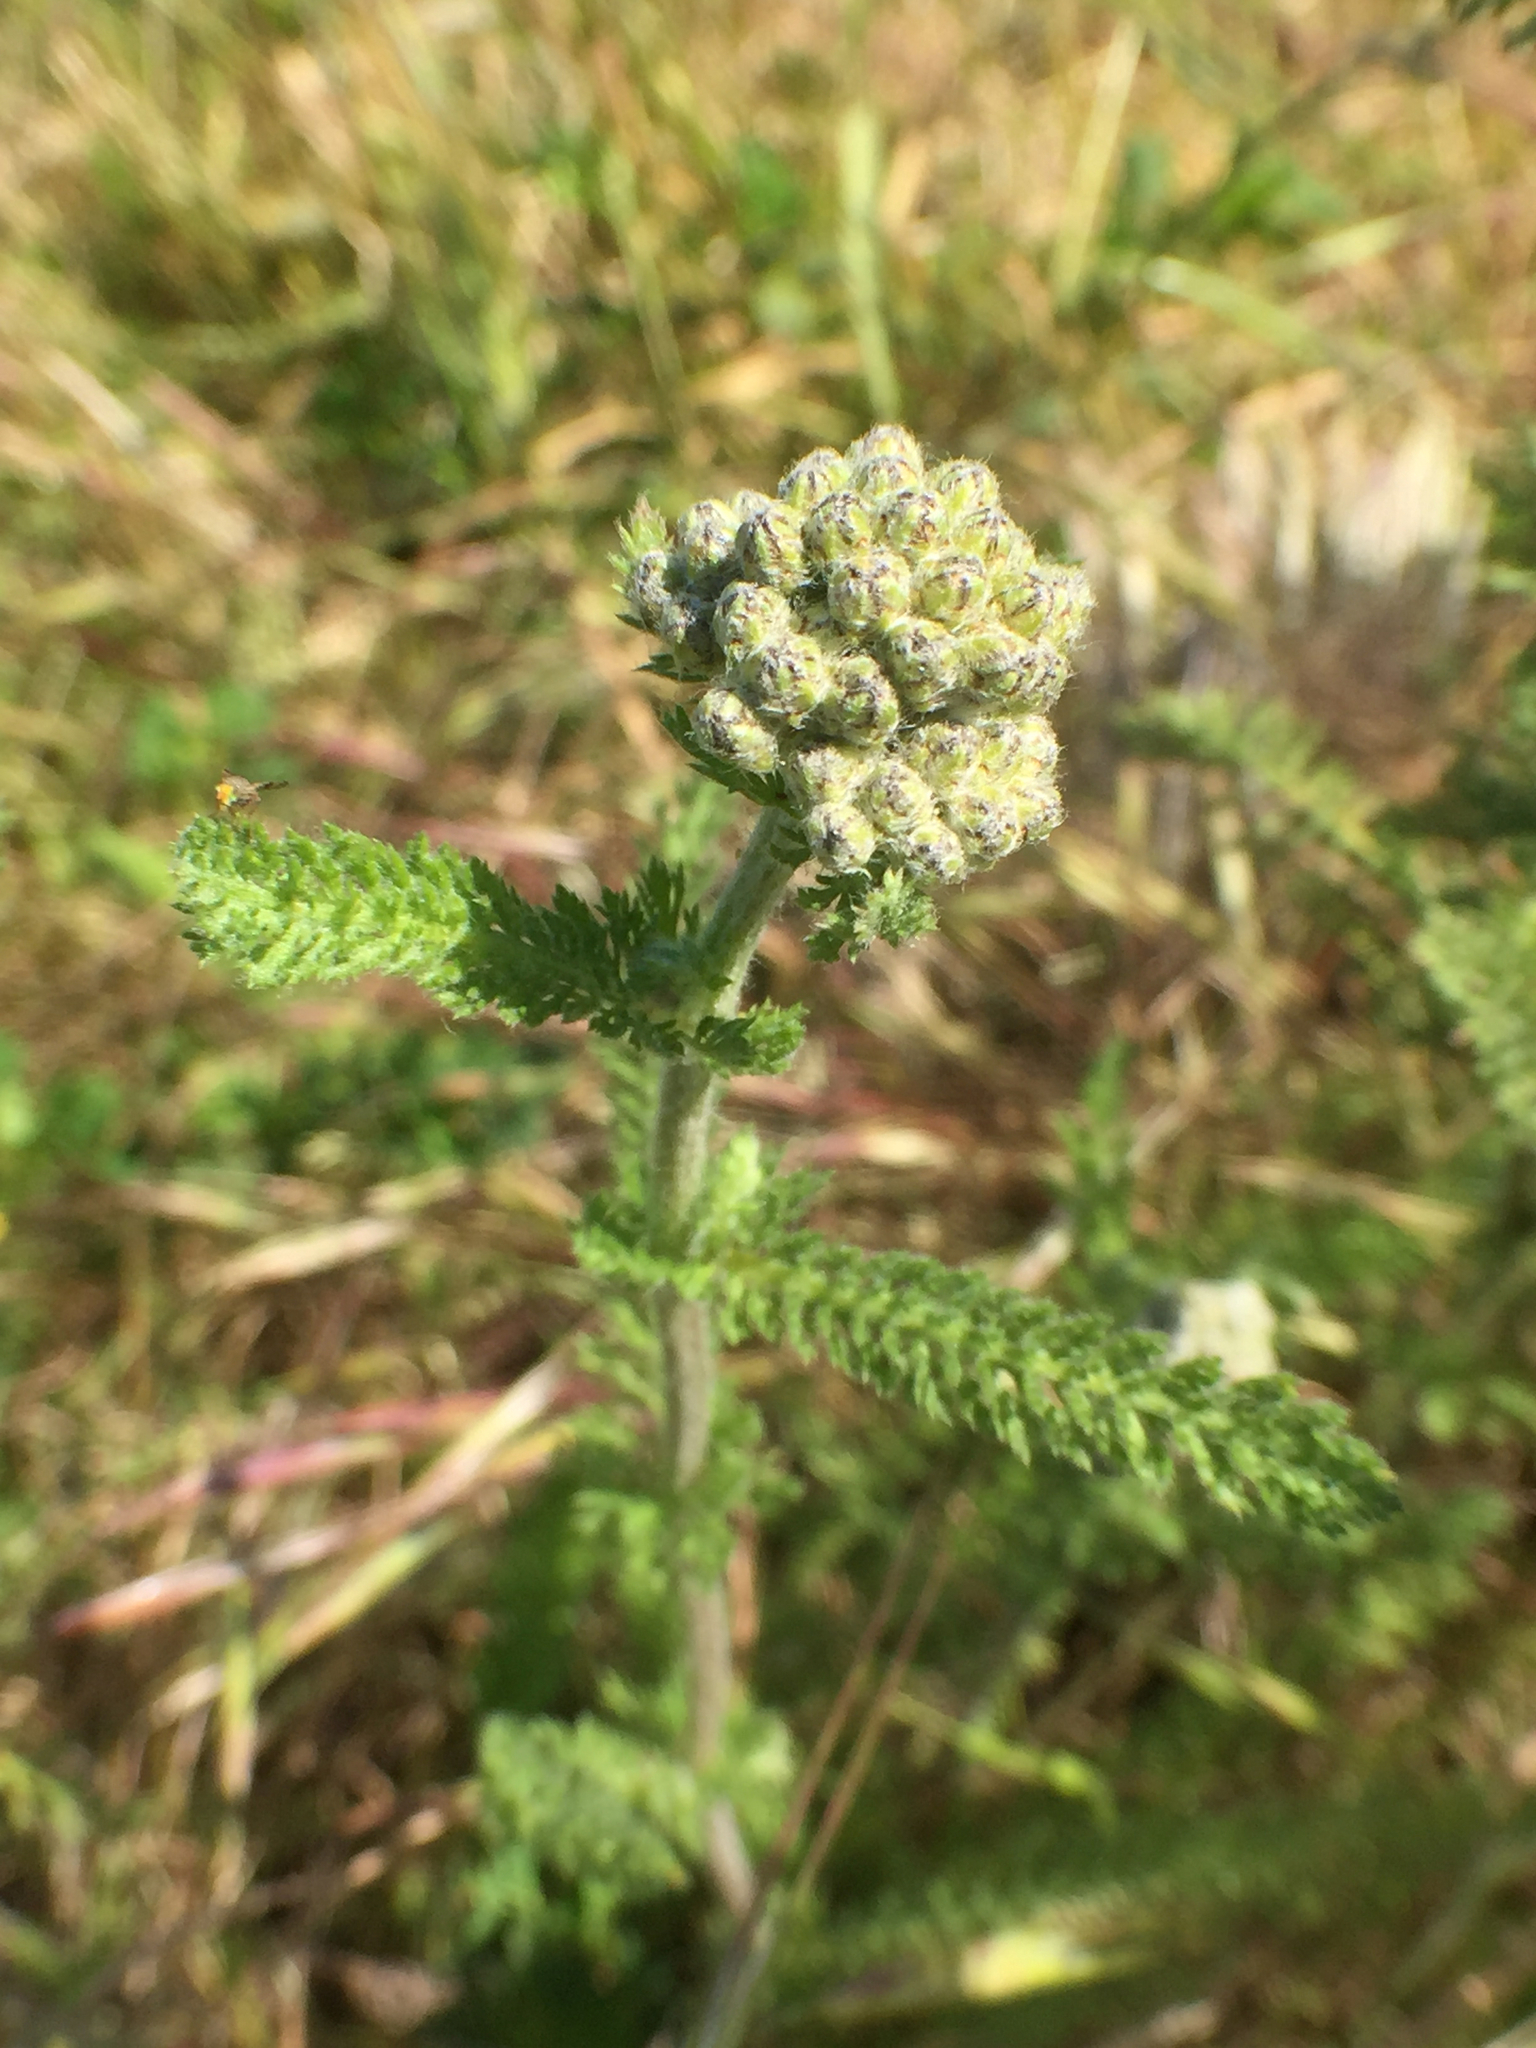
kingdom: Plantae
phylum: Tracheophyta
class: Magnoliopsida
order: Asterales
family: Asteraceae
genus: Achillea
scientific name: Achillea millefolium
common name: Yarrow
